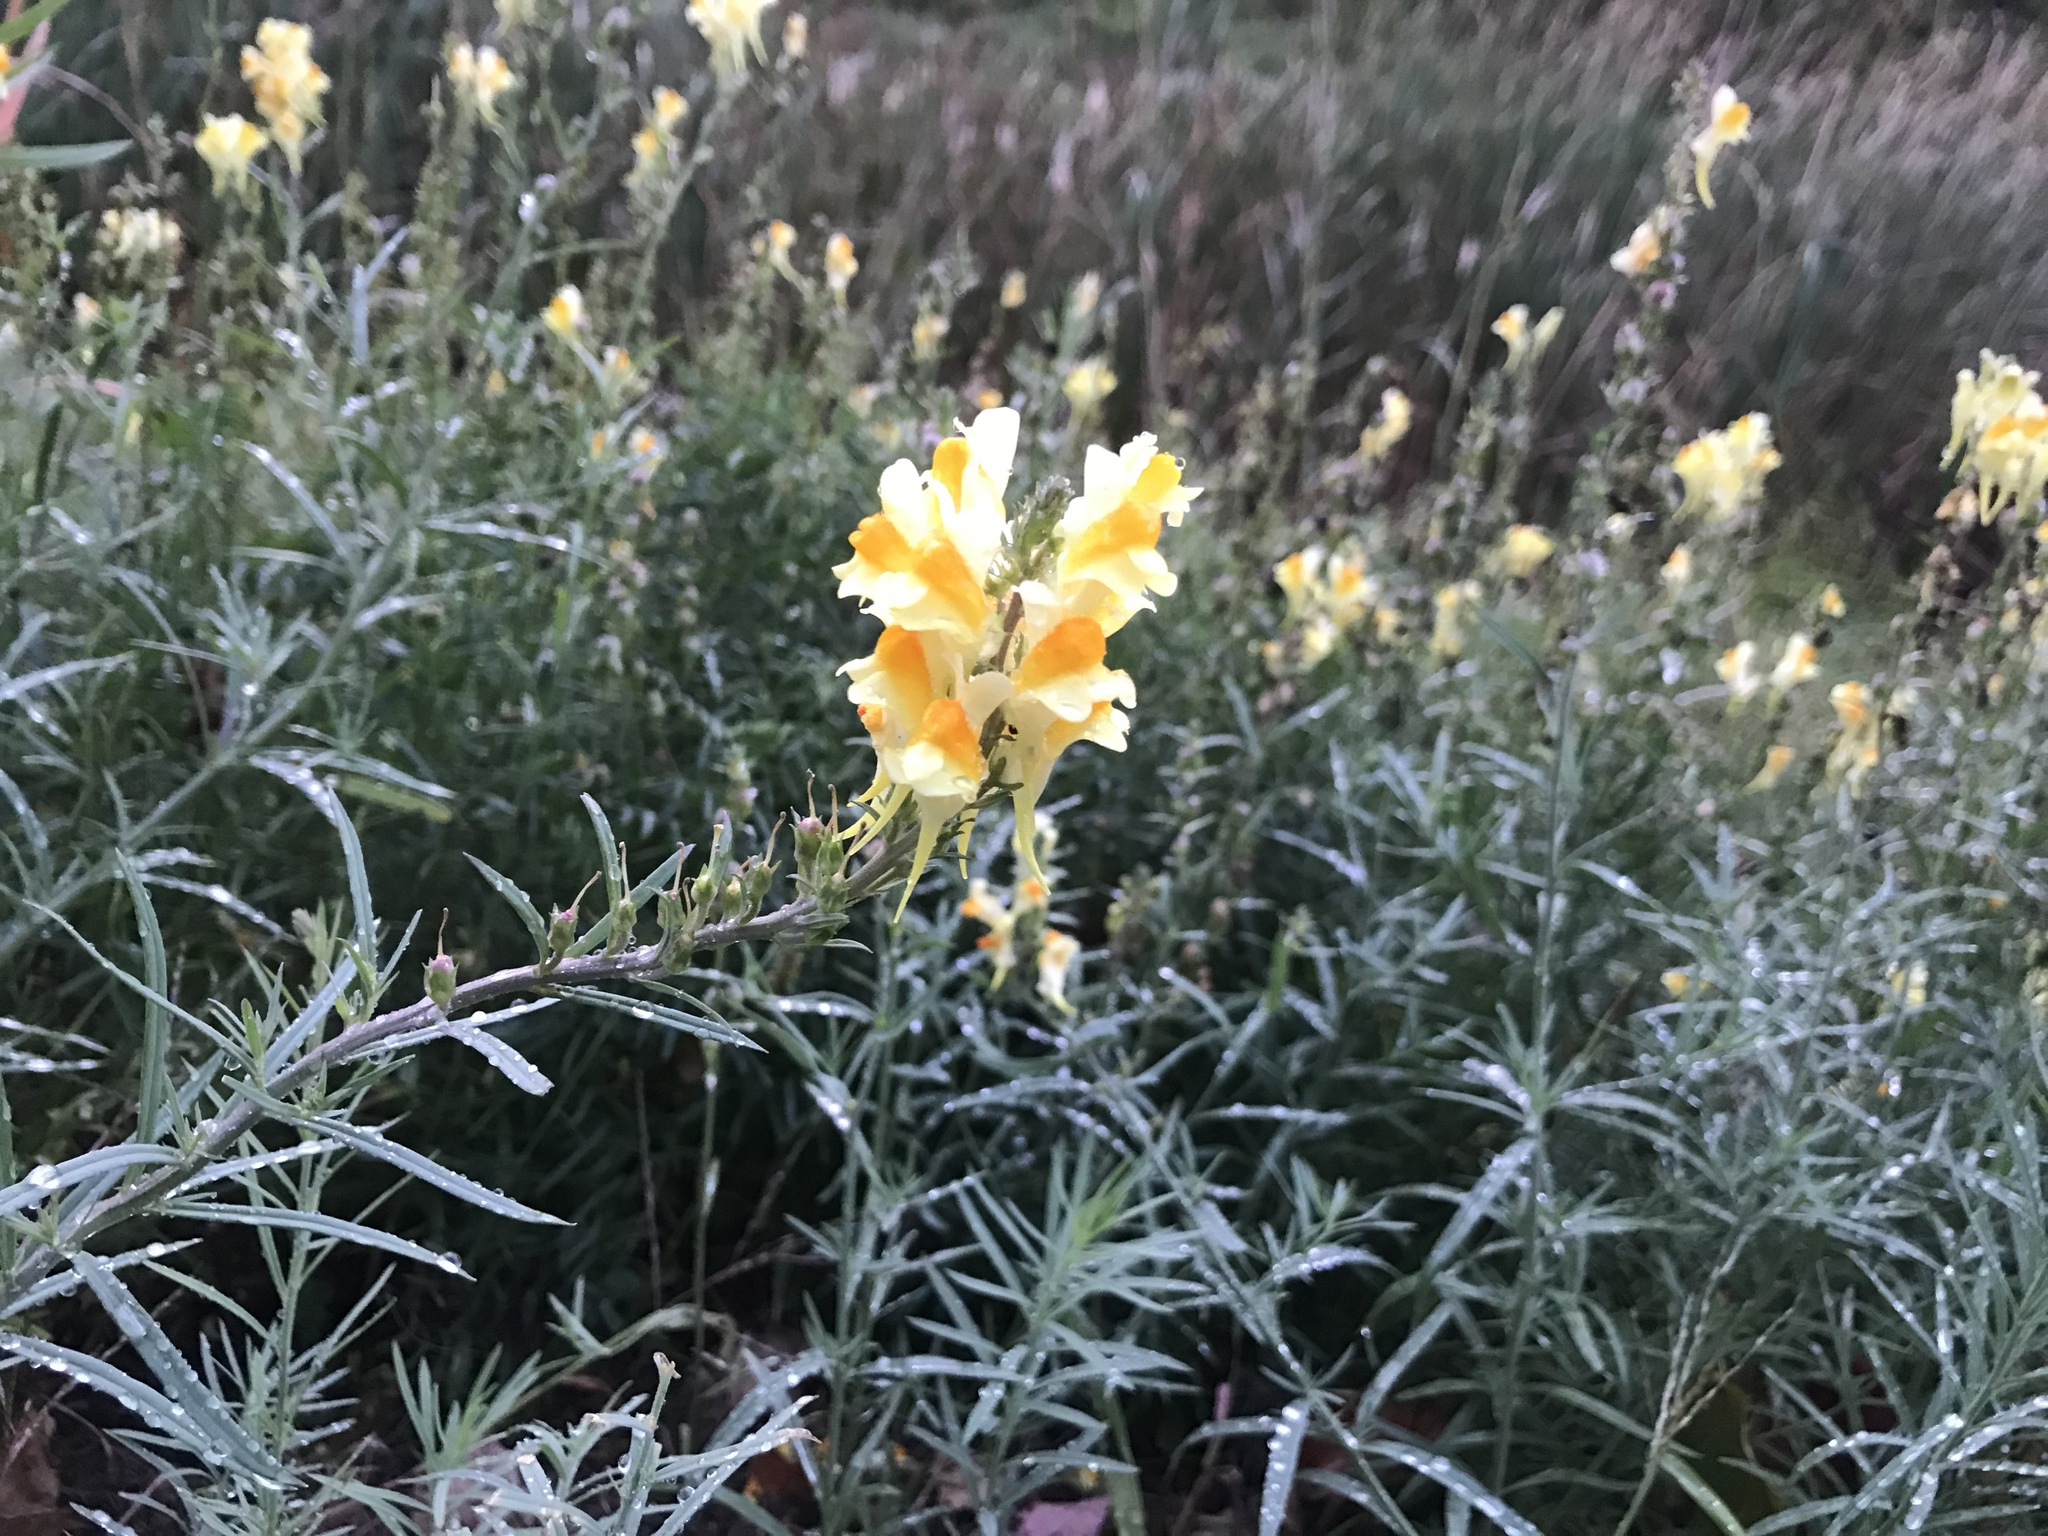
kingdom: Plantae
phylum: Tracheophyta
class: Magnoliopsida
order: Lamiales
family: Plantaginaceae
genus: Linaria
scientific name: Linaria vulgaris
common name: Butter and eggs
